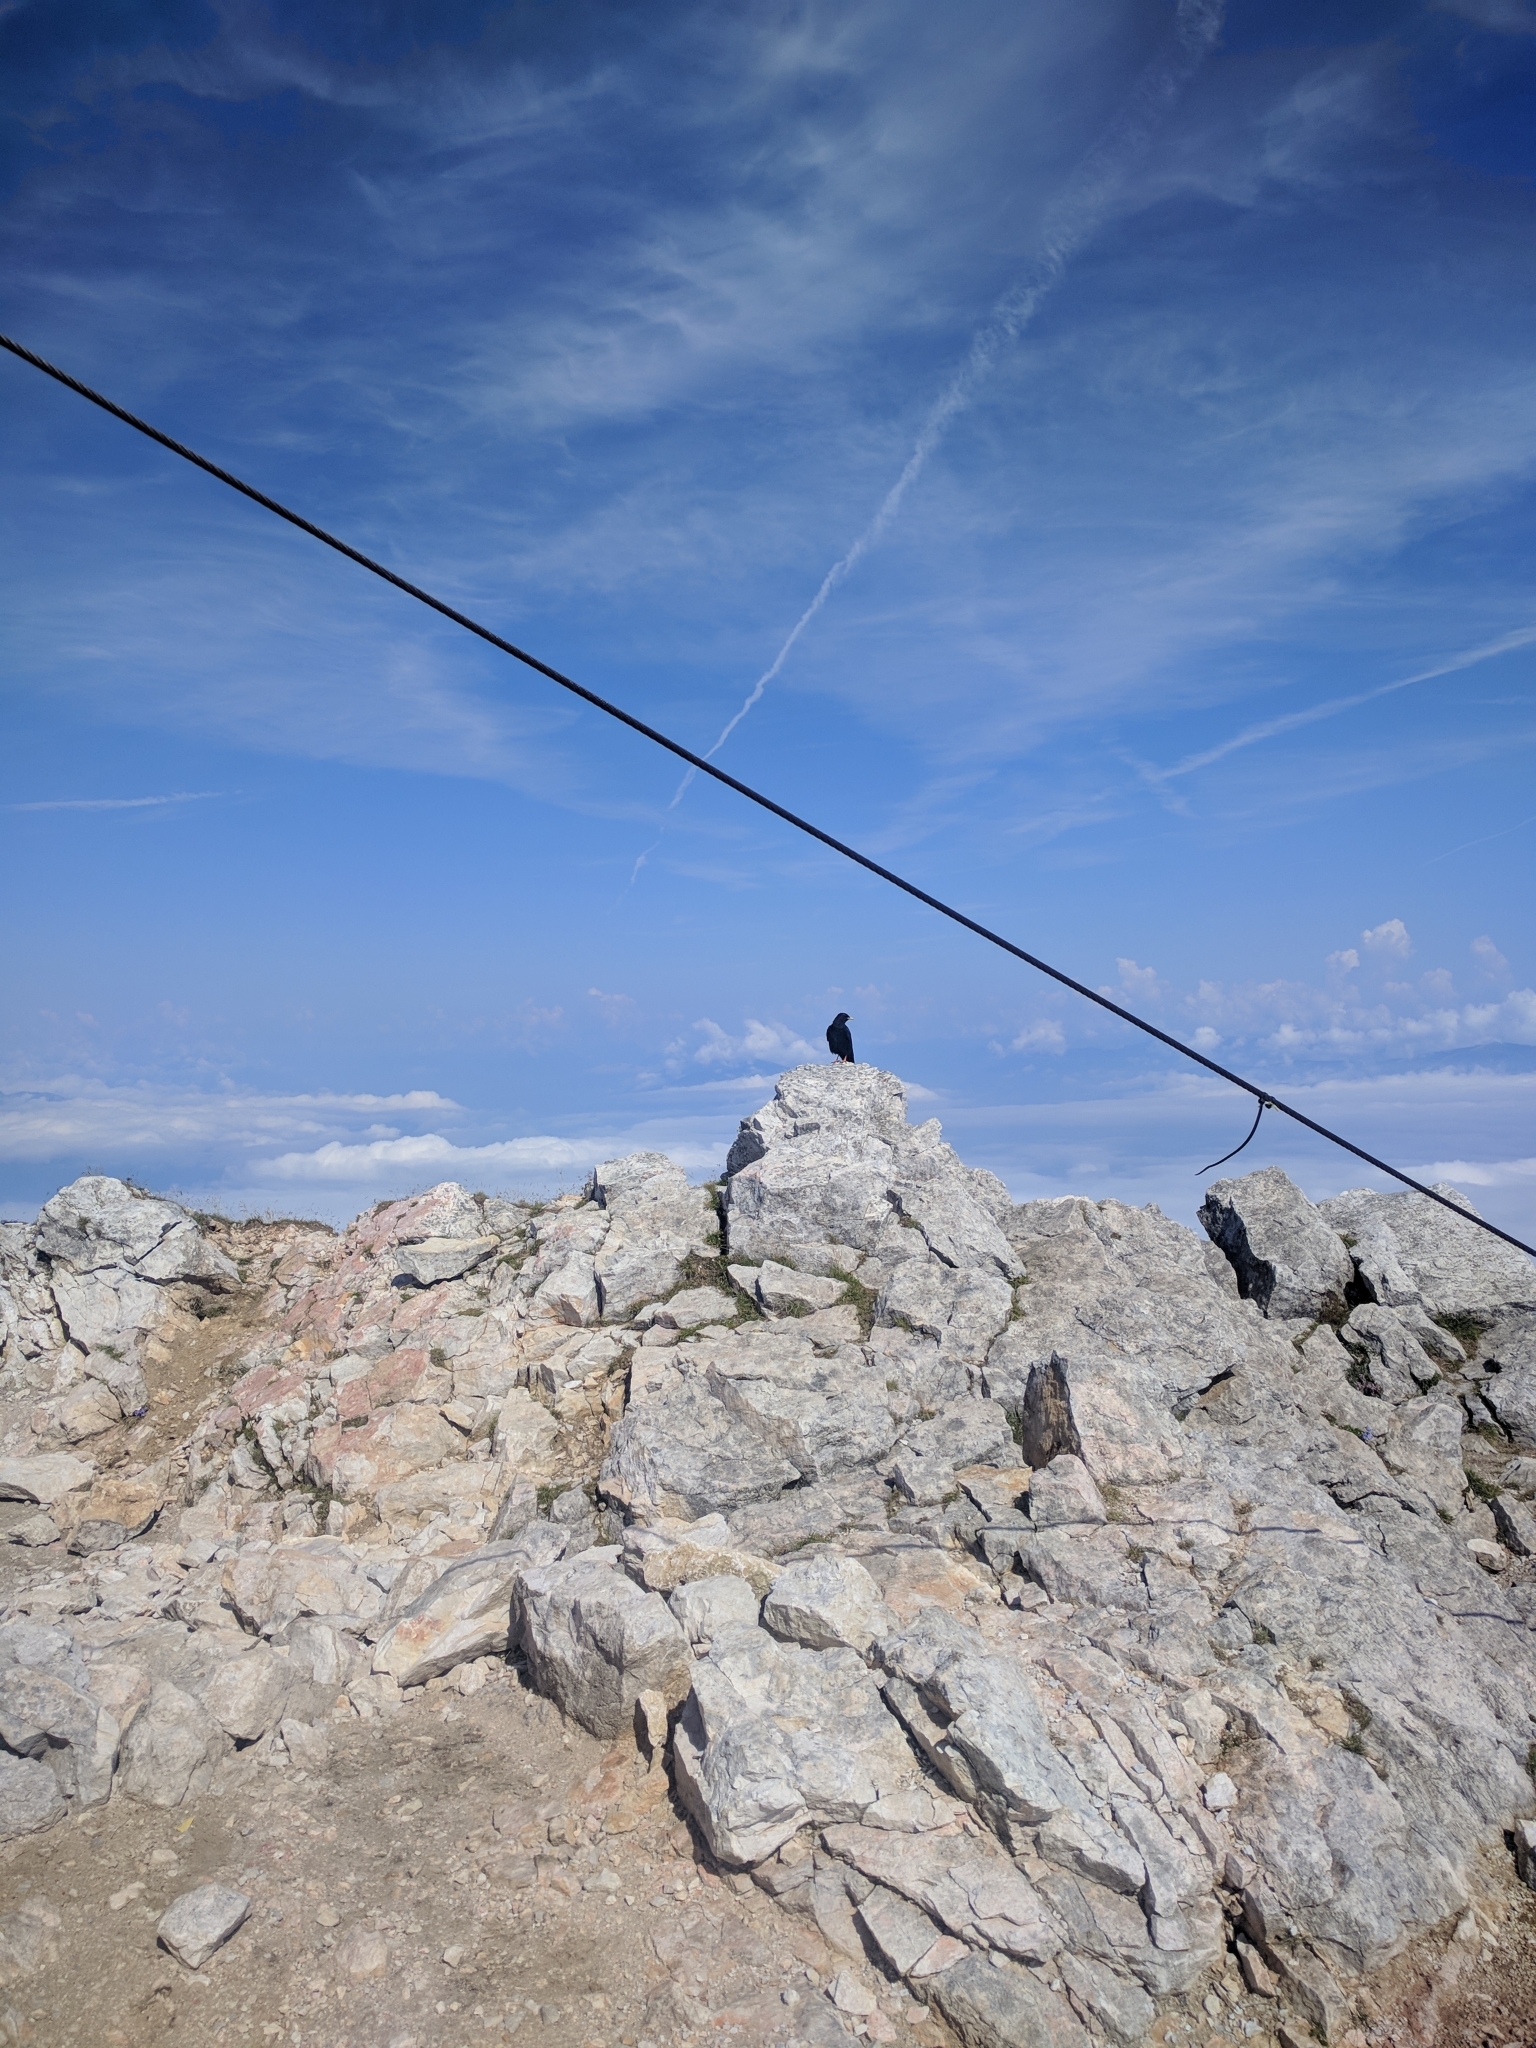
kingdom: Animalia
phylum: Chordata
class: Aves
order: Passeriformes
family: Corvidae
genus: Pyrrhocorax
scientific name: Pyrrhocorax graculus
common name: Alpine chough
